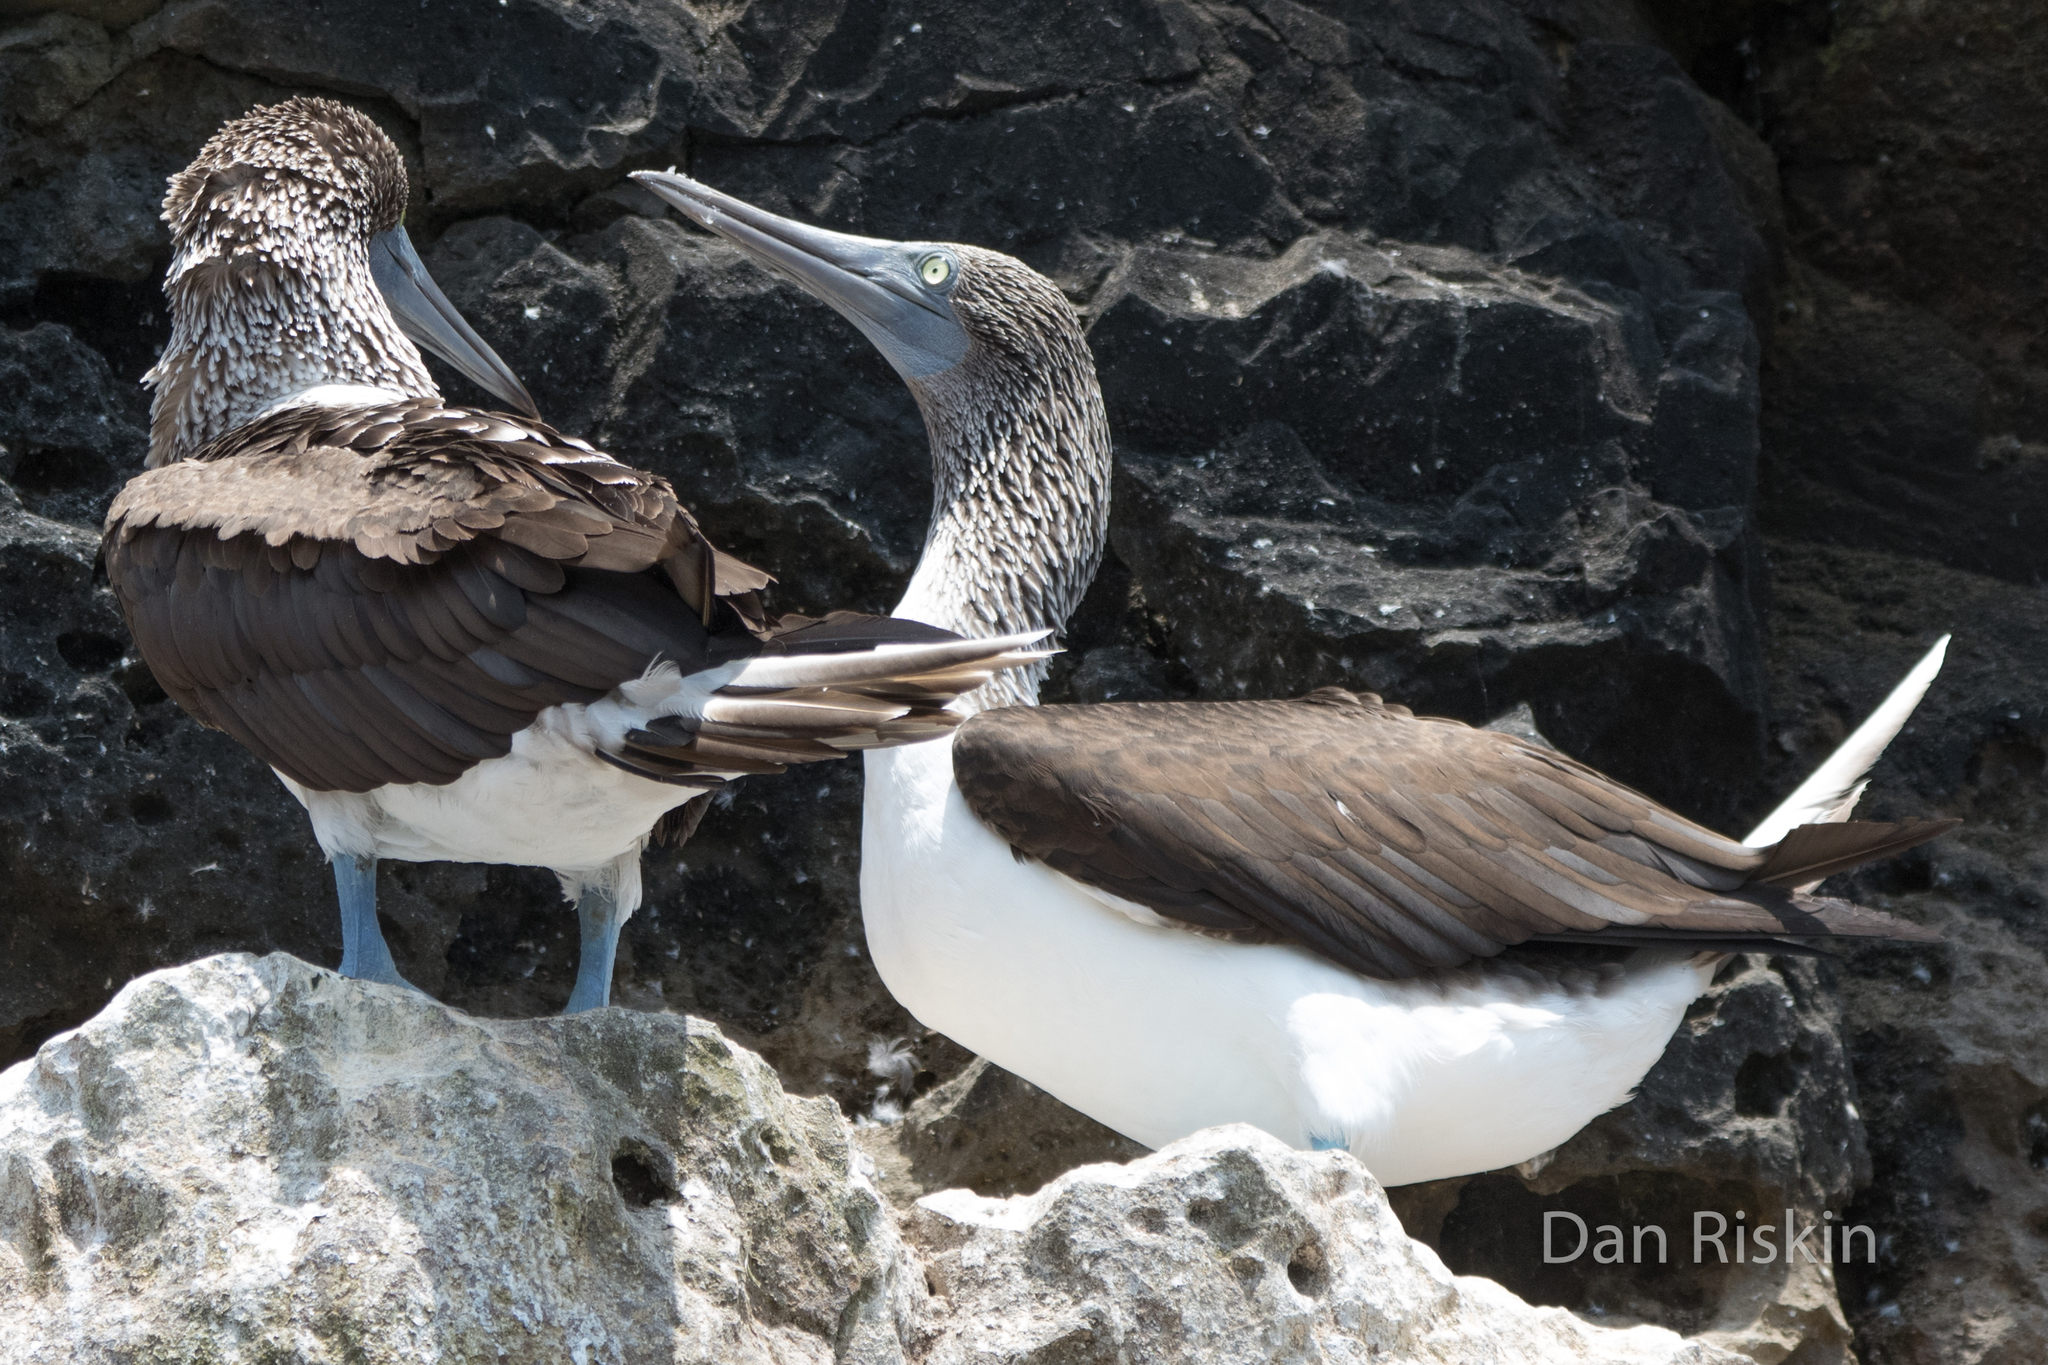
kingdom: Animalia
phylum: Chordata
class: Aves
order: Suliformes
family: Sulidae
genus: Sula
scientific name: Sula nebouxii
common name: Blue-footed booby
